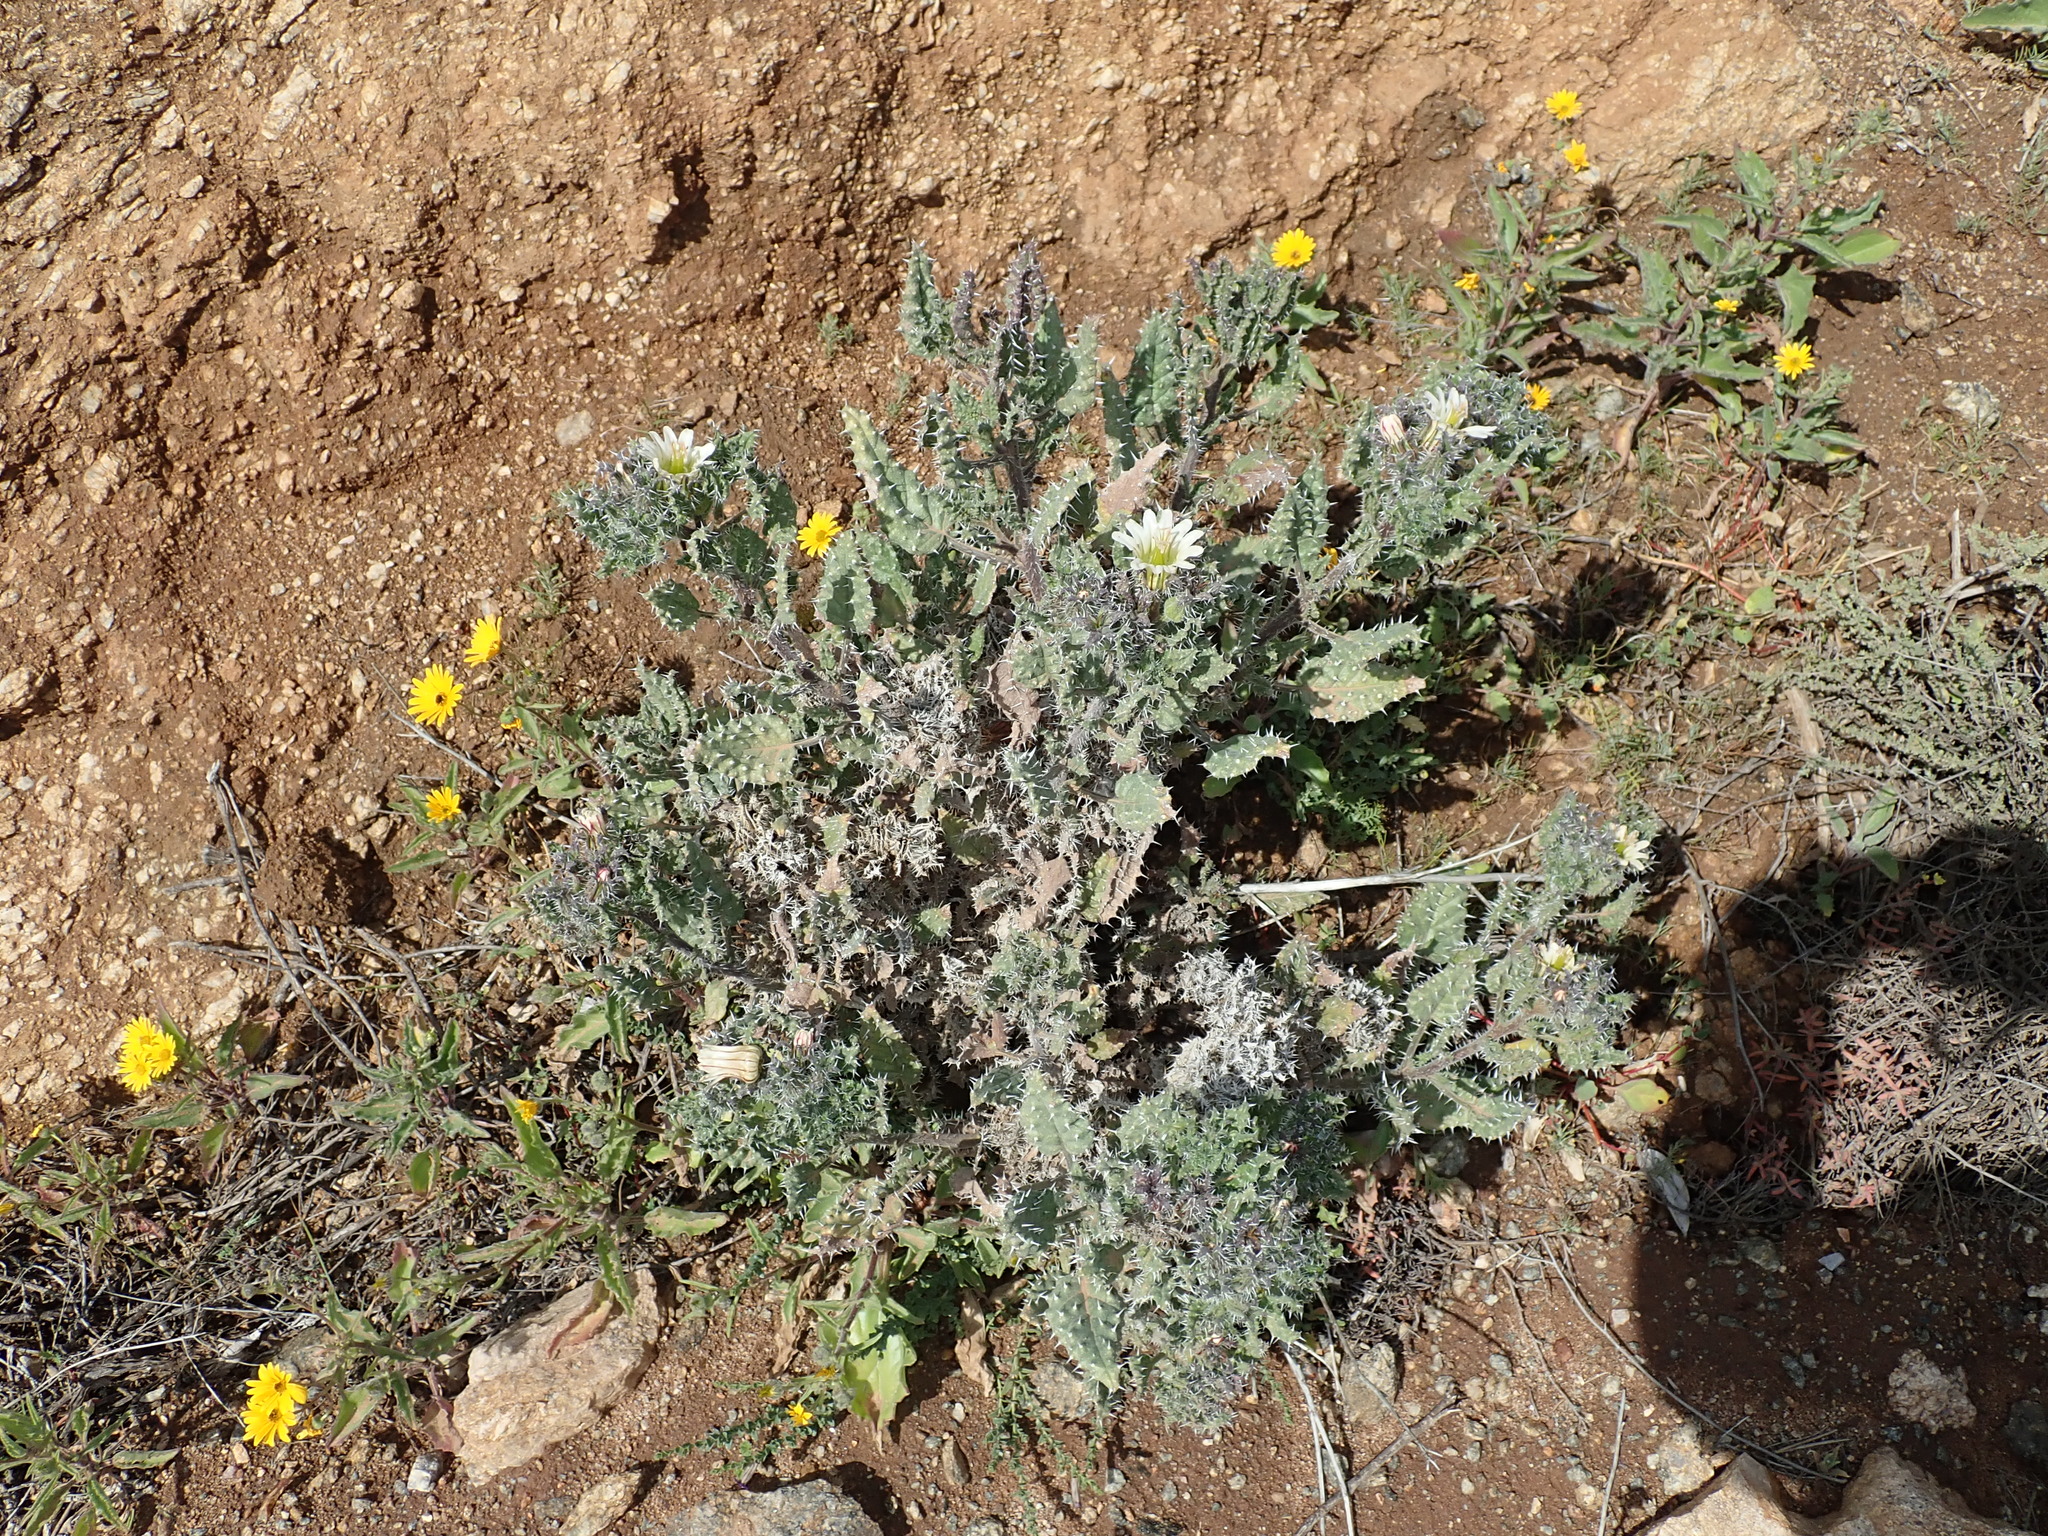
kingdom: Plantae
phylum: Tracheophyta
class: Magnoliopsida
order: Boraginales
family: Boraginaceae
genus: Codon
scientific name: Codon royenii
